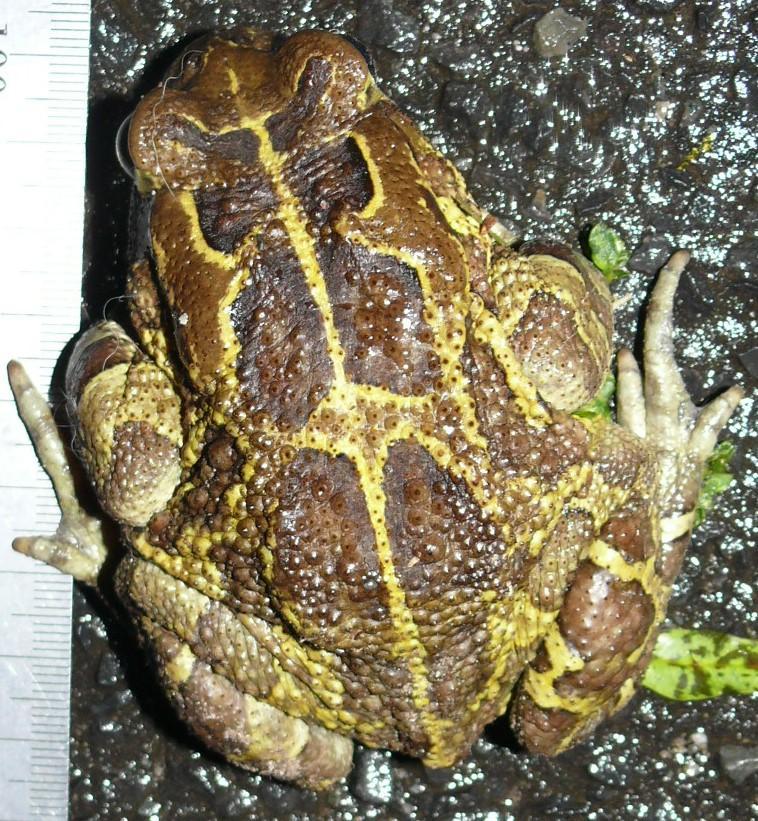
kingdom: Animalia
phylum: Chordata
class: Amphibia
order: Anura
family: Bufonidae
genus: Sclerophrys
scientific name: Sclerophrys pantherina
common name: Panther toad
